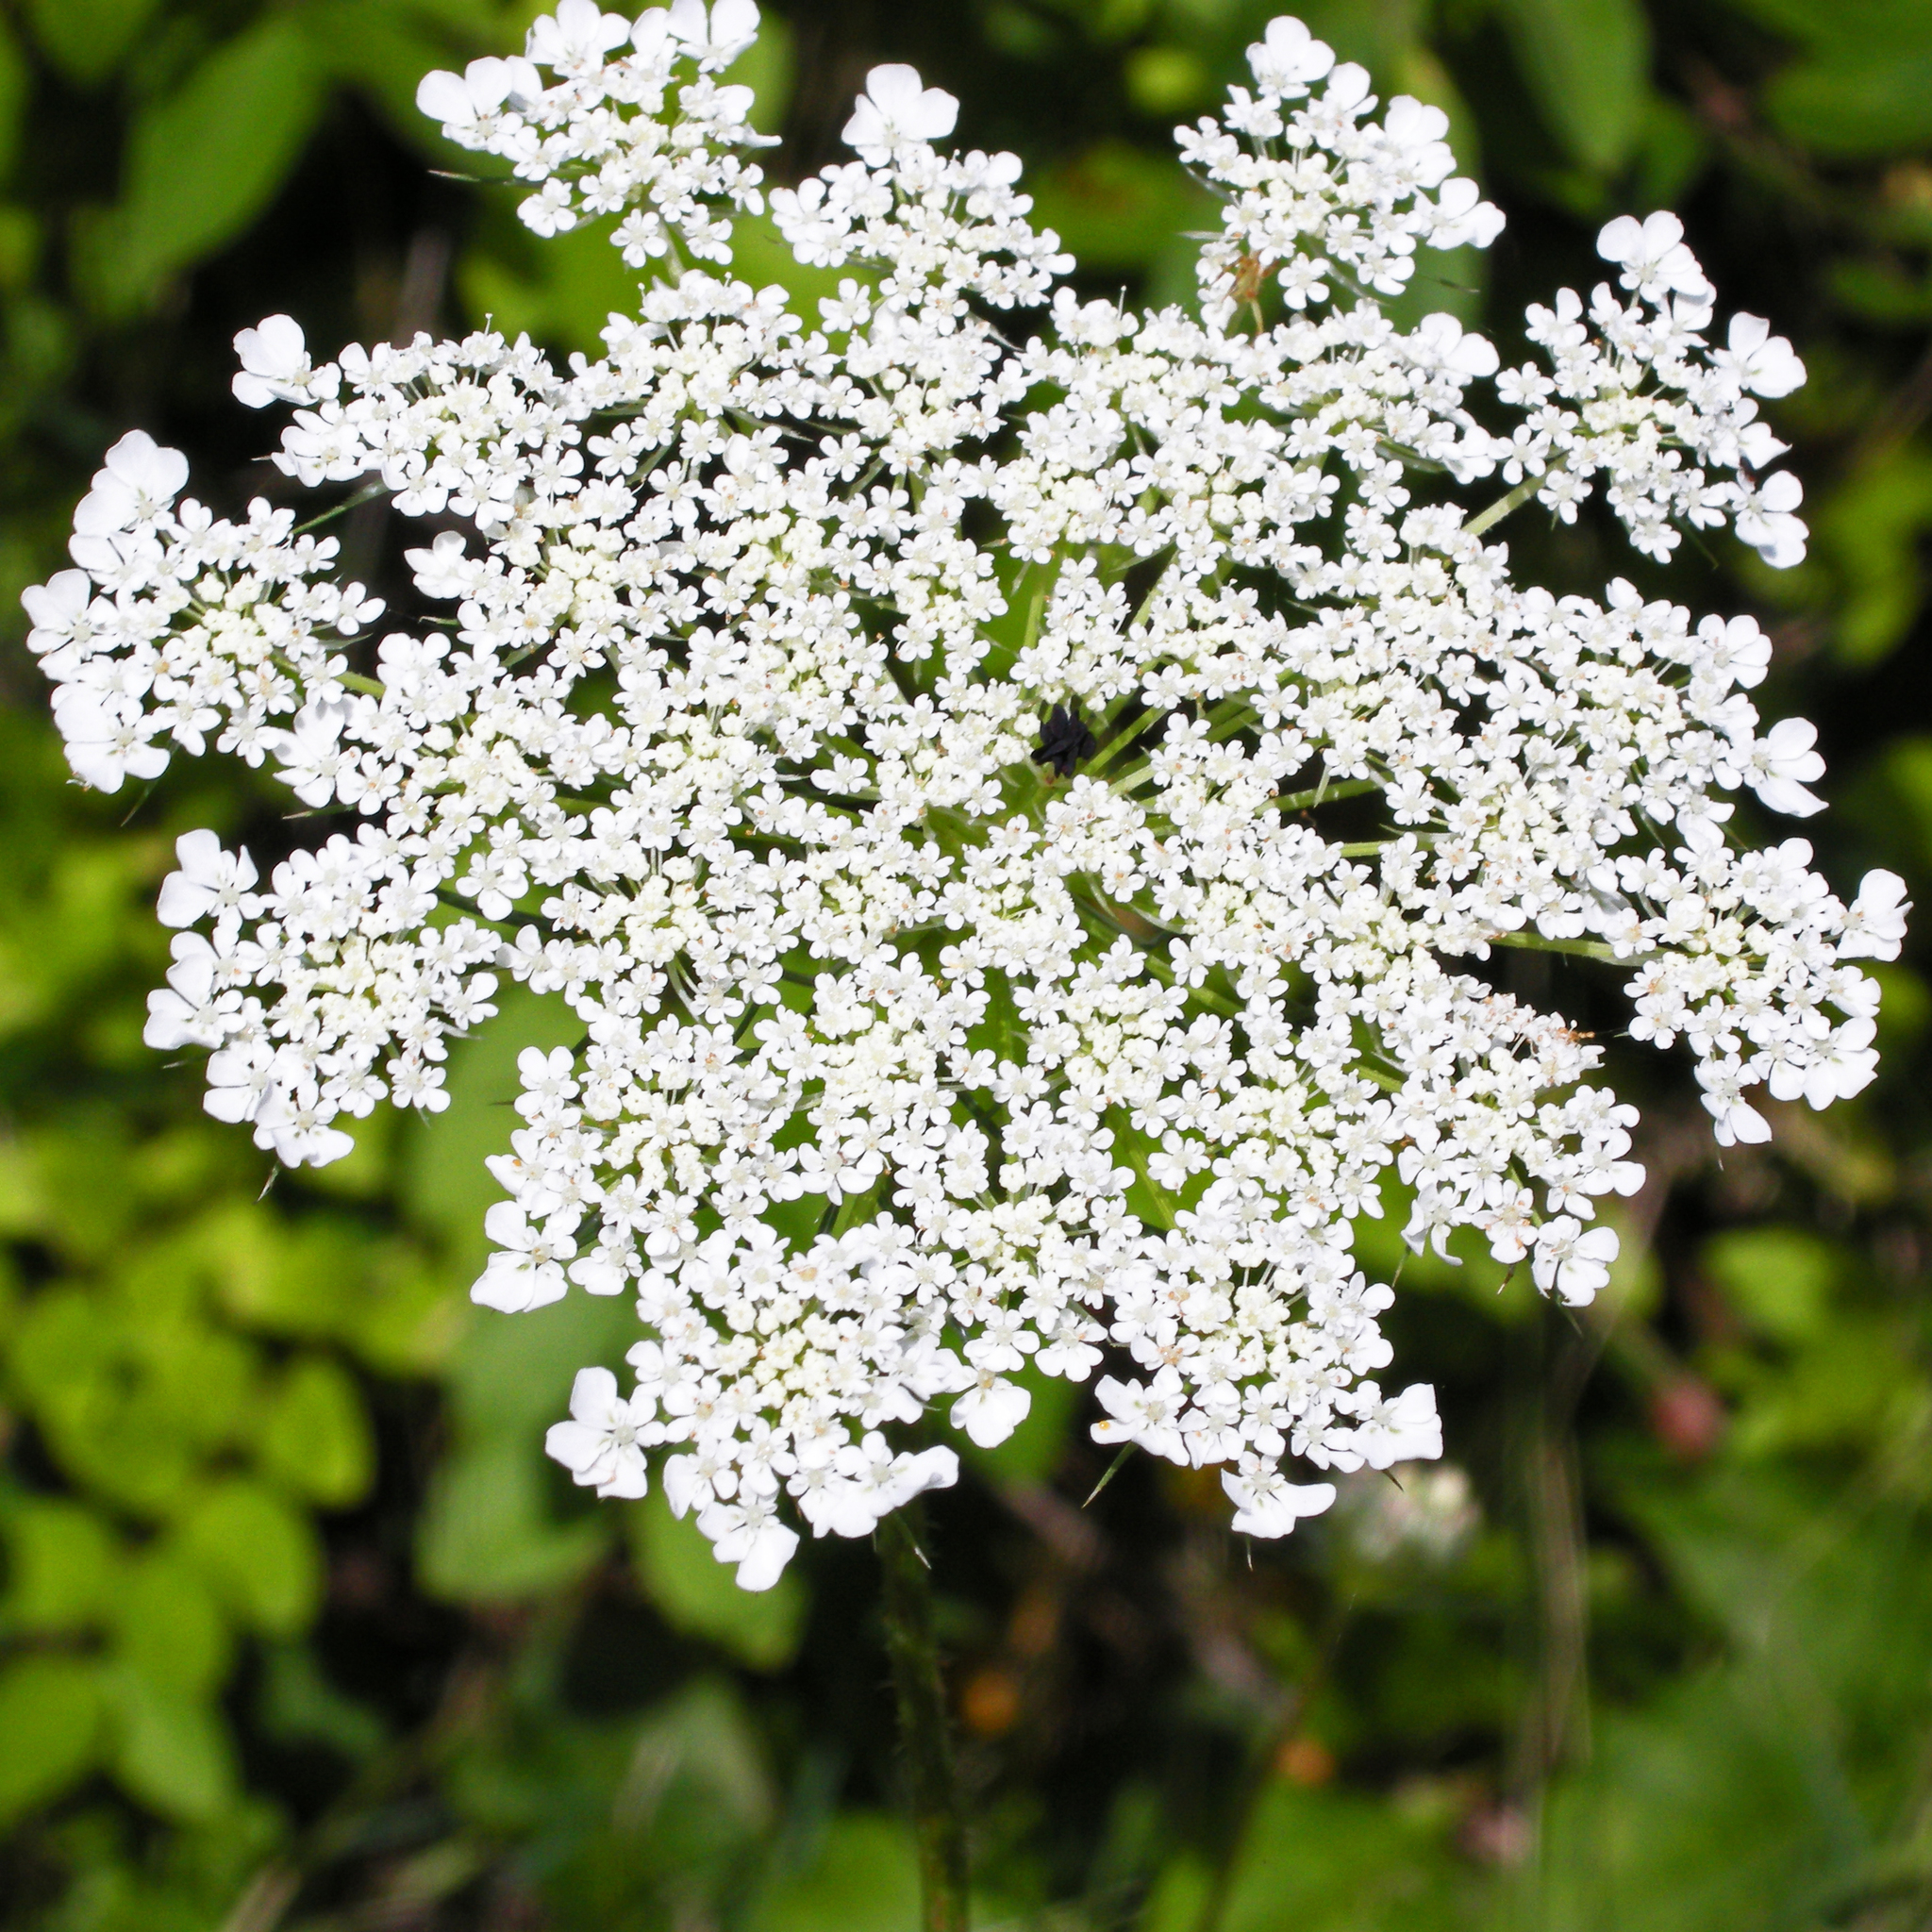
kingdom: Plantae
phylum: Tracheophyta
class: Magnoliopsida
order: Apiales
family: Apiaceae
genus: Daucus
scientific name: Daucus carota
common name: Wild carrot
